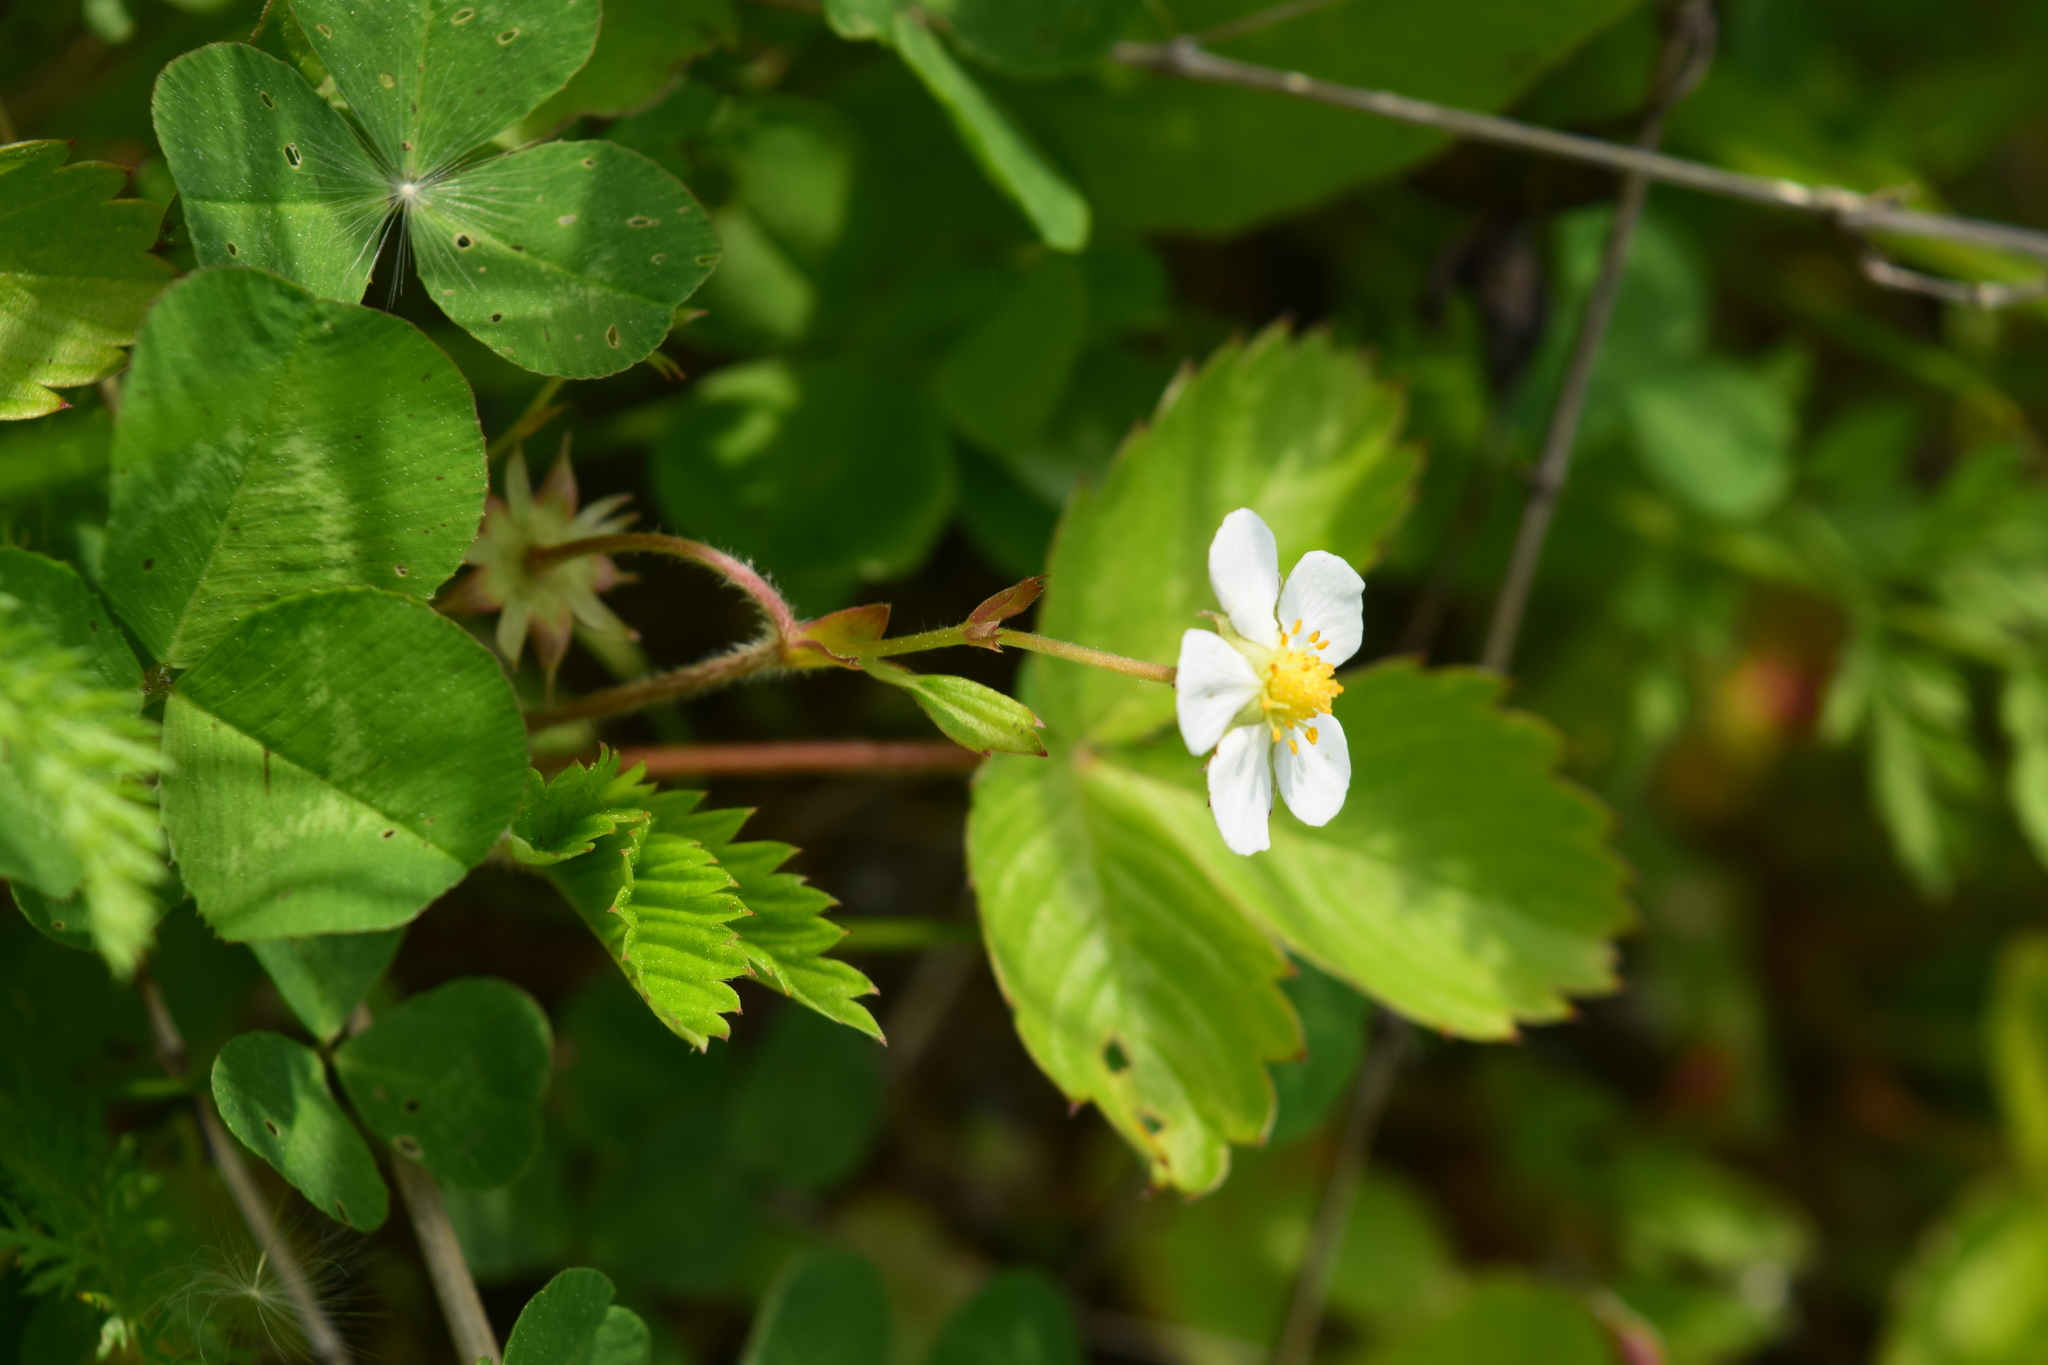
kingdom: Plantae
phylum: Tracheophyta
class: Magnoliopsida
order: Rosales
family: Rosaceae
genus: Fragaria
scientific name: Fragaria vesca
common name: Wild strawberry
